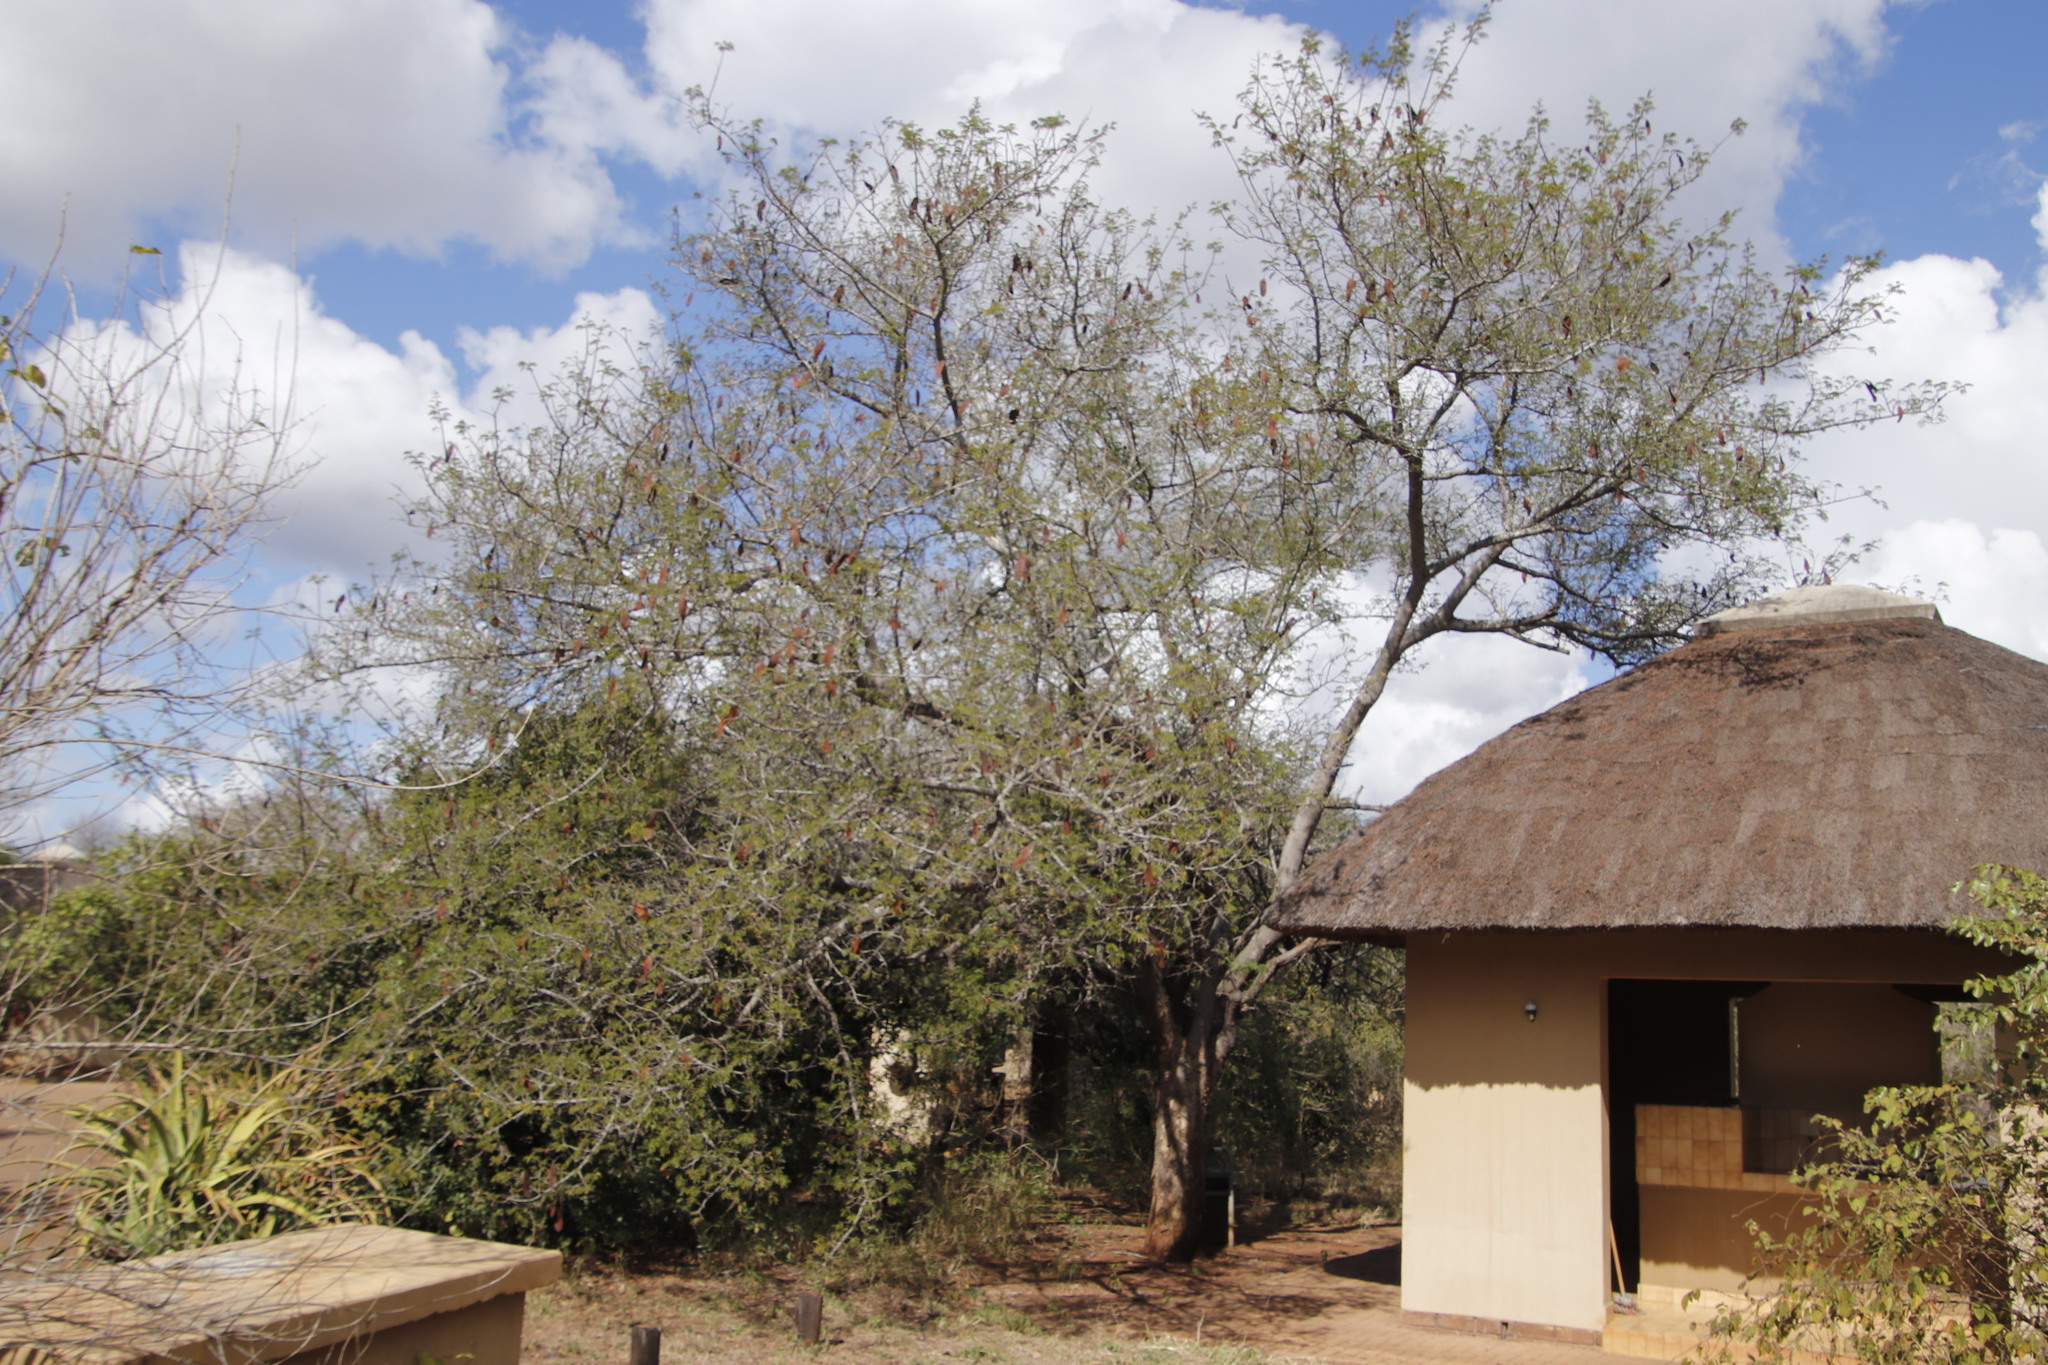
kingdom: Plantae
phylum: Tracheophyta
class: Magnoliopsida
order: Fabales
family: Fabaceae
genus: Albizia
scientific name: Albizia forbesii
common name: Broad-pod albizia
